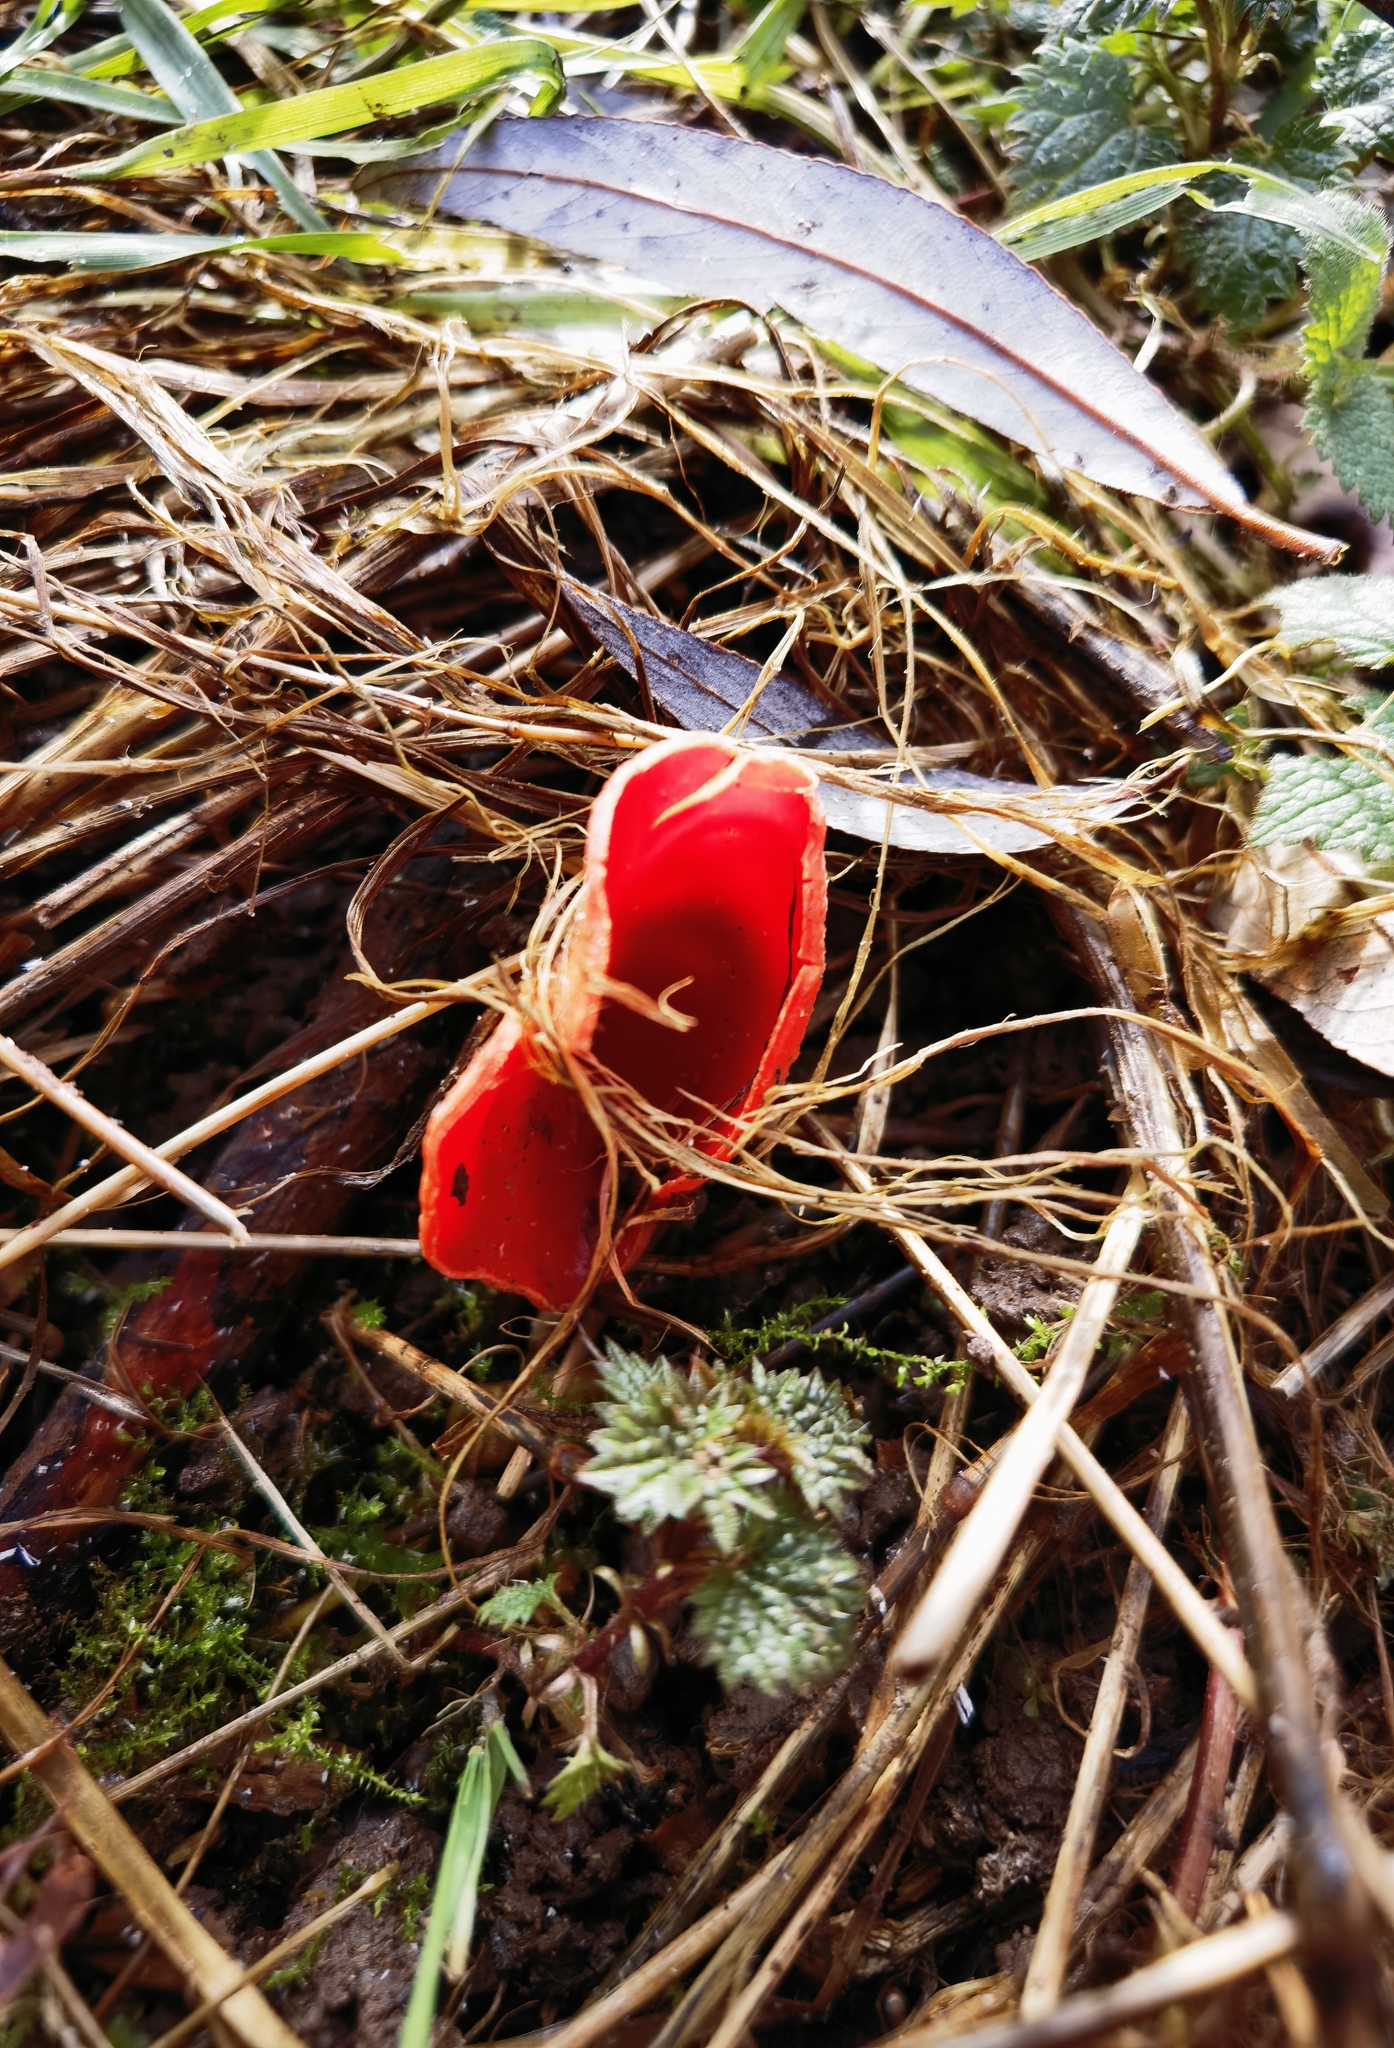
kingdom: Fungi
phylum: Ascomycota
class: Pezizomycetes
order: Pezizales
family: Sarcoscyphaceae
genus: Sarcoscypha
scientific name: Sarcoscypha
